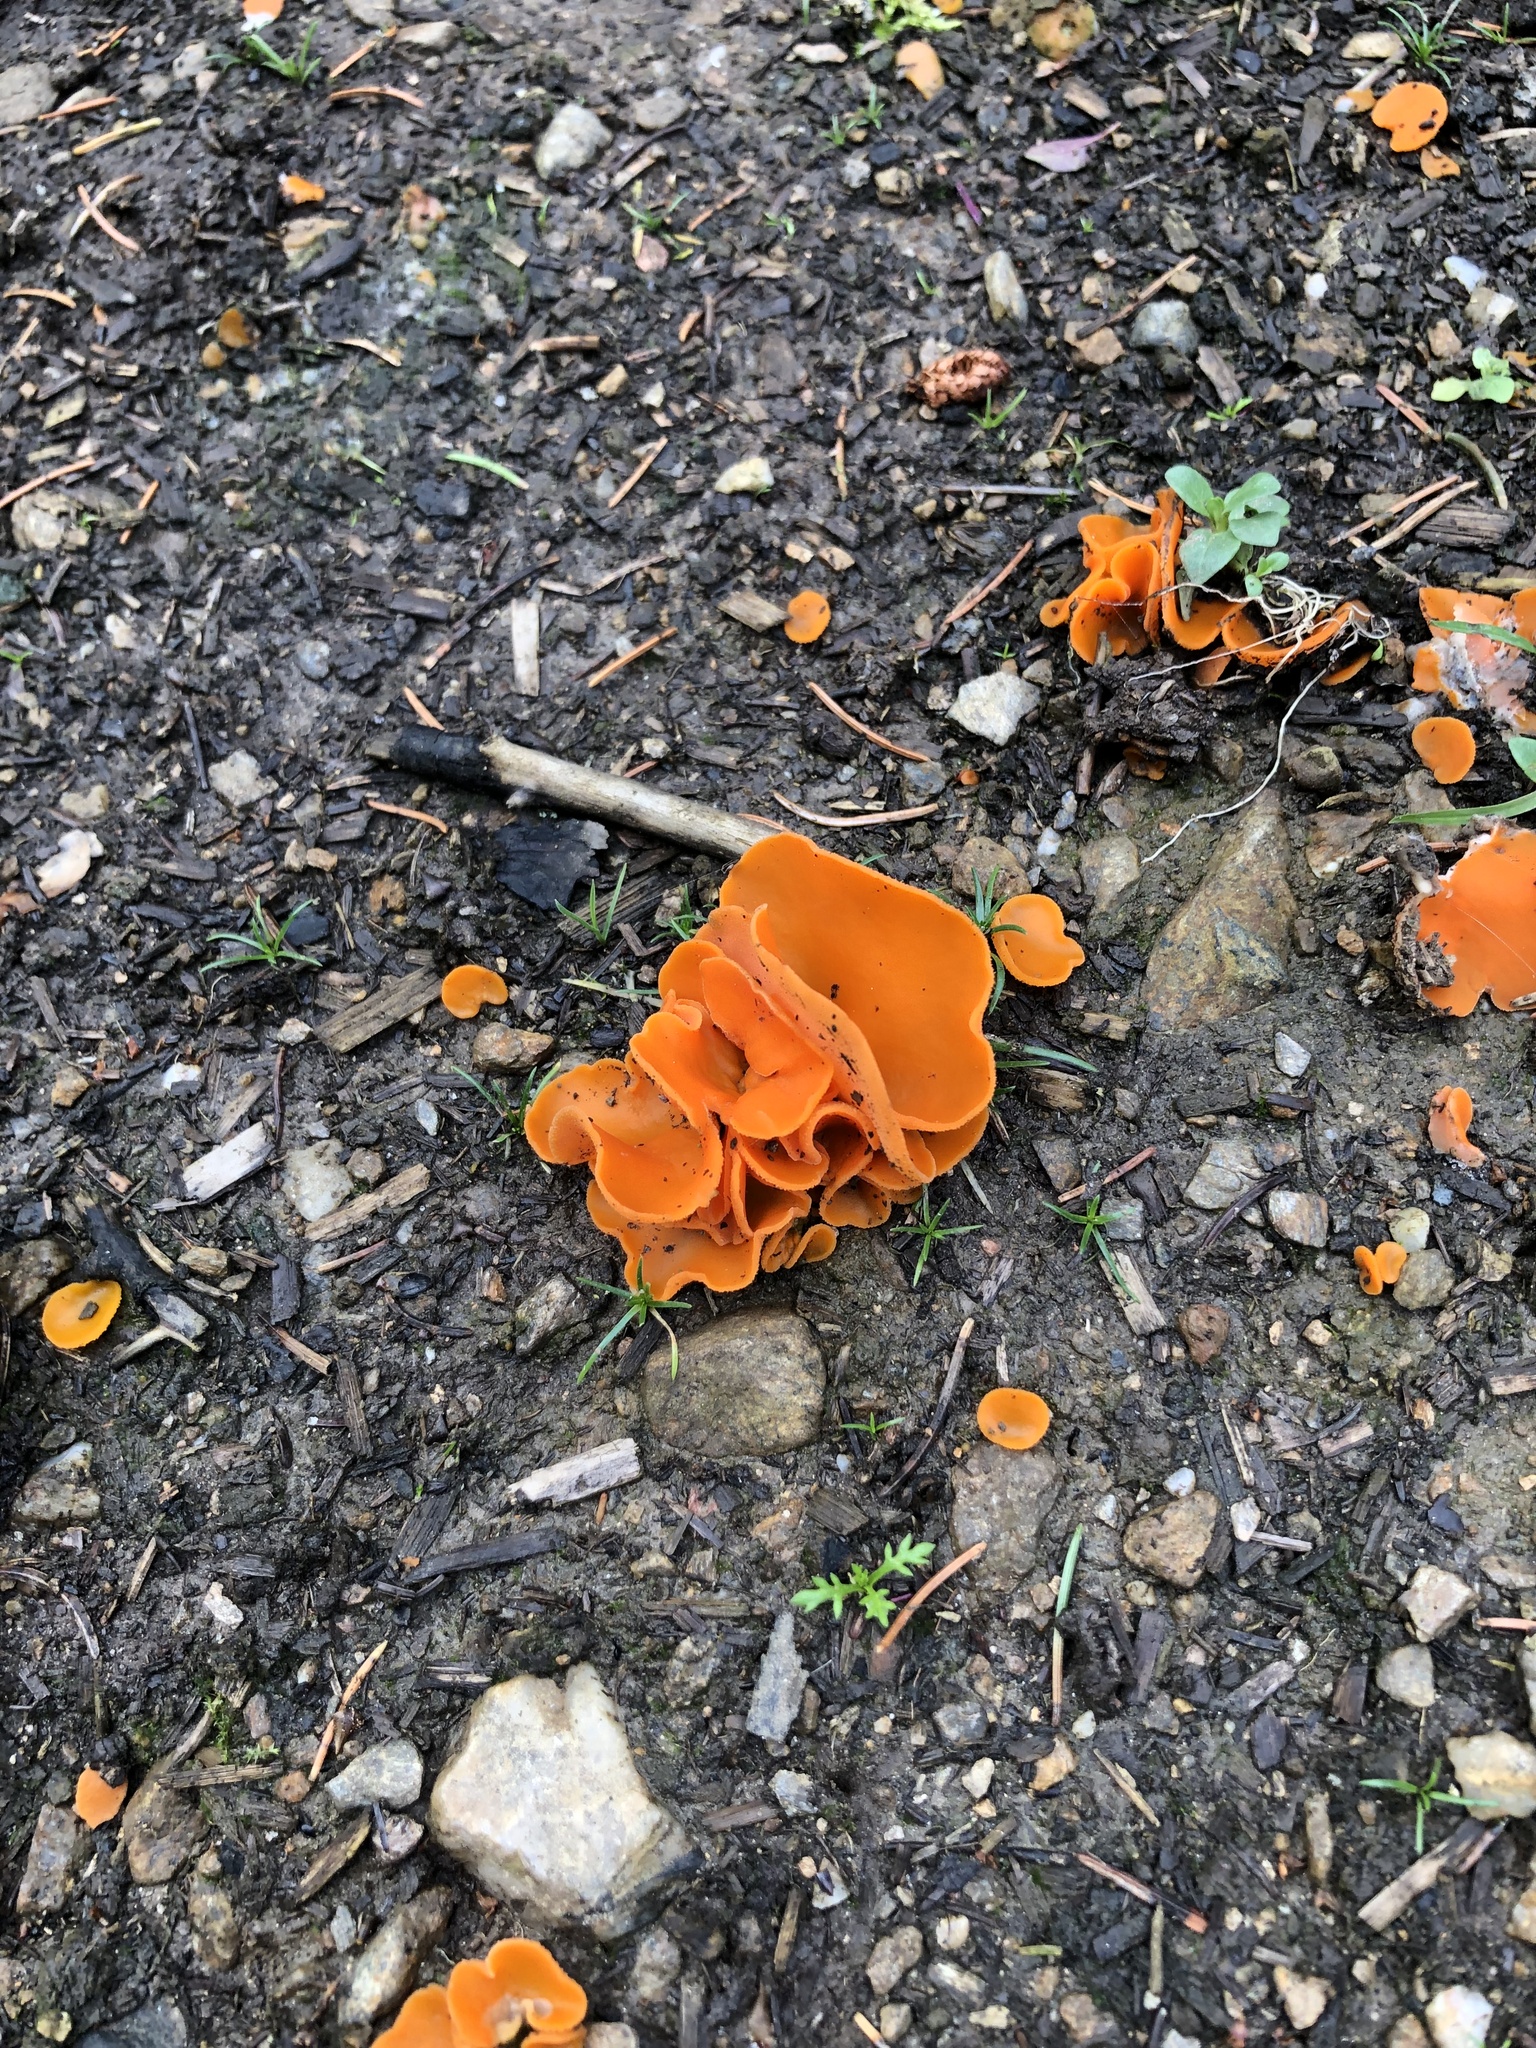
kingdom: Fungi
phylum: Ascomycota
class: Pezizomycetes
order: Pezizales
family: Pyronemataceae
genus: Aleuria
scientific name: Aleuria aurantia
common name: Orange peel fungus
